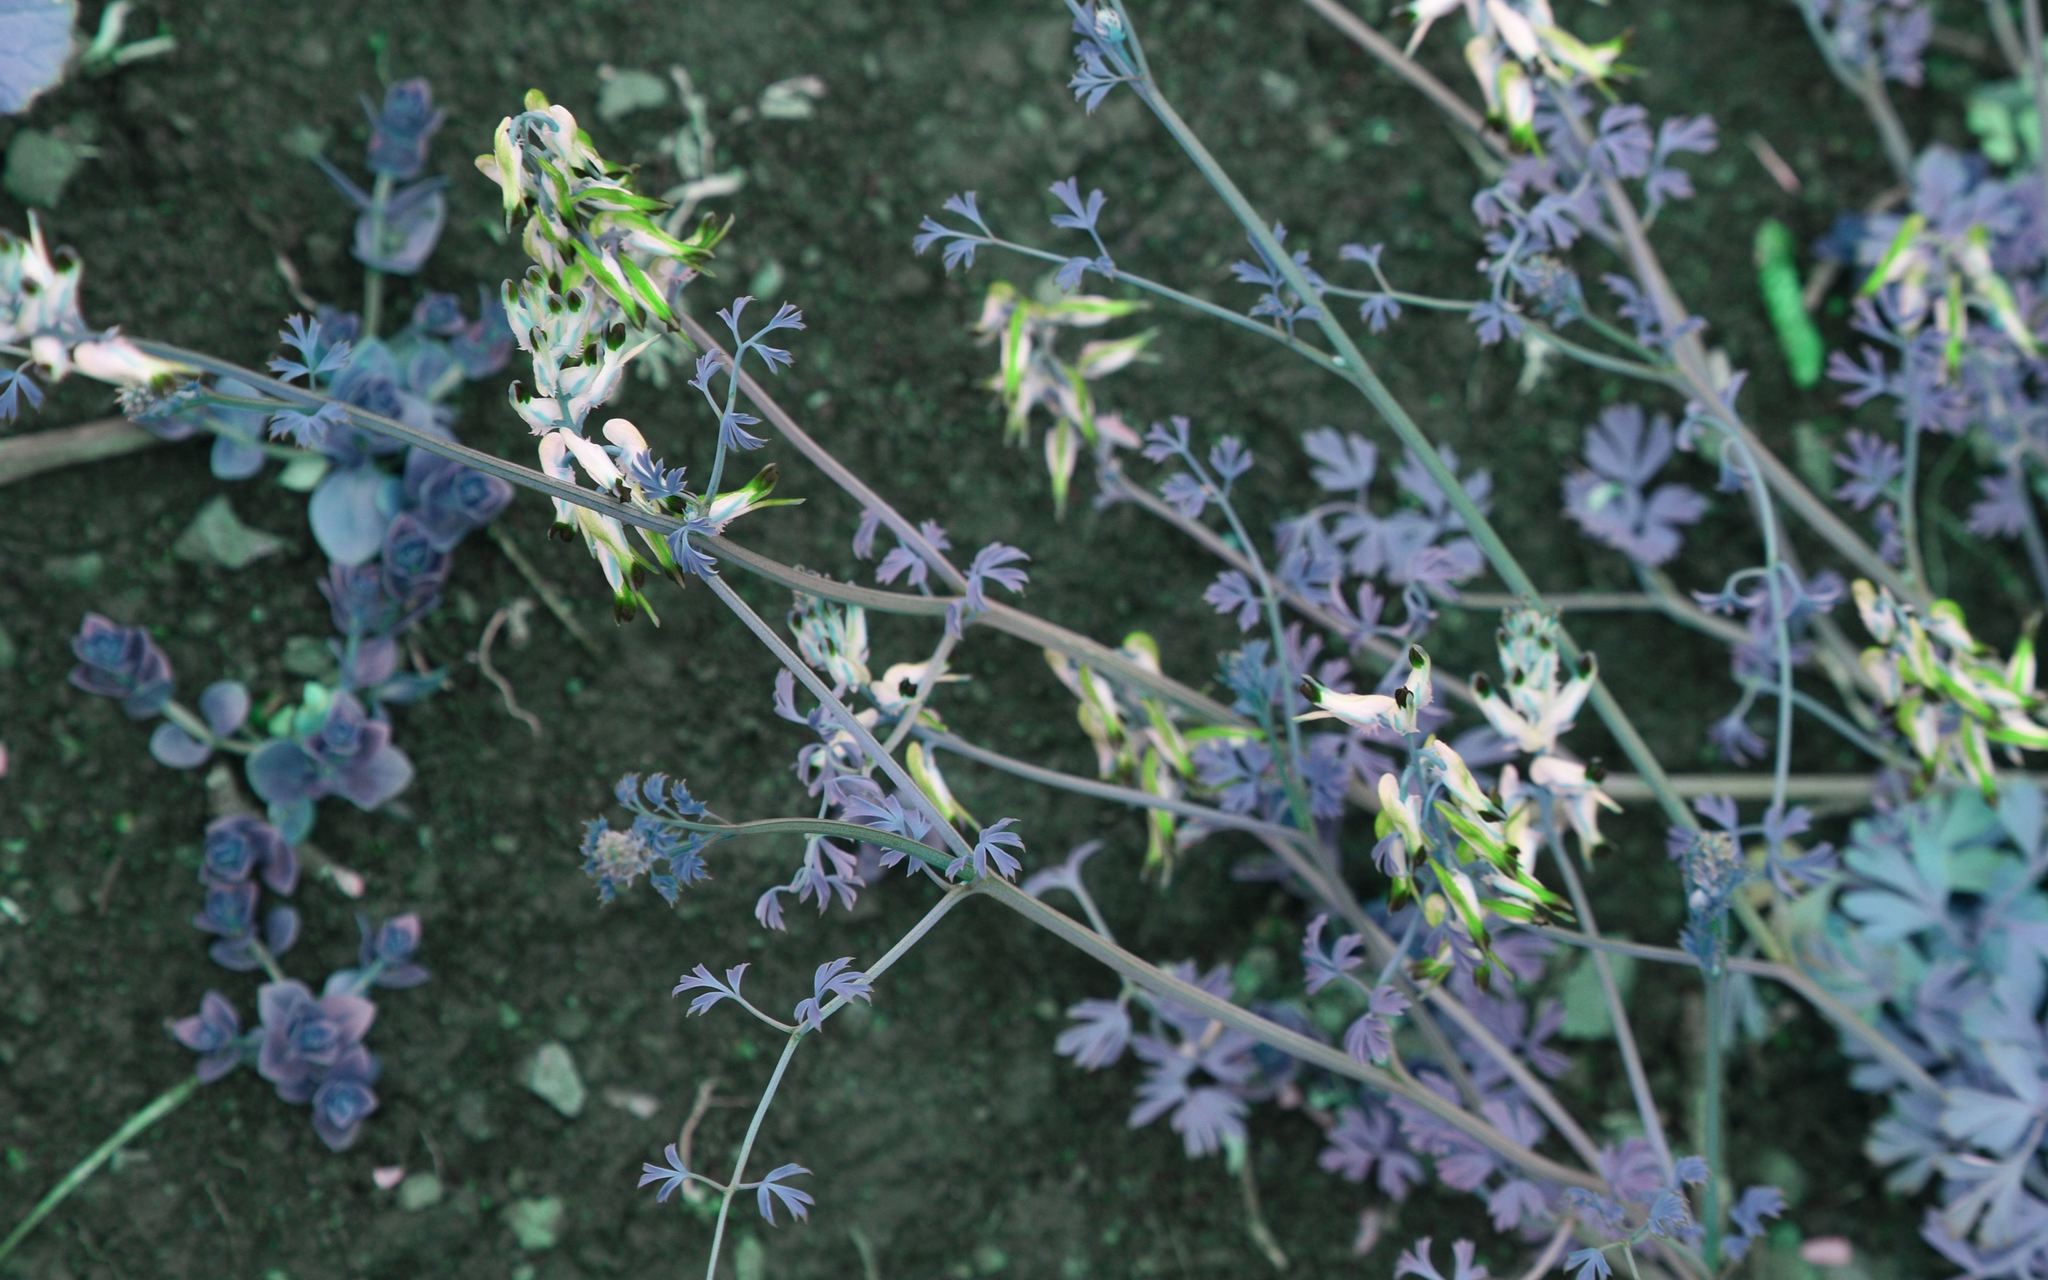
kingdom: Plantae
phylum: Tracheophyta
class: Magnoliopsida
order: Ranunculales
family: Papaveraceae
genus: Fumaria
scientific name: Fumaria capreolata
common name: White ramping-fumitory
